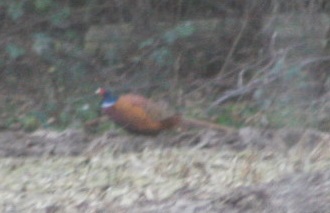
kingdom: Animalia
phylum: Chordata
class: Aves
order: Galliformes
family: Phasianidae
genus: Phasianus
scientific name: Phasianus colchicus
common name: Common pheasant
